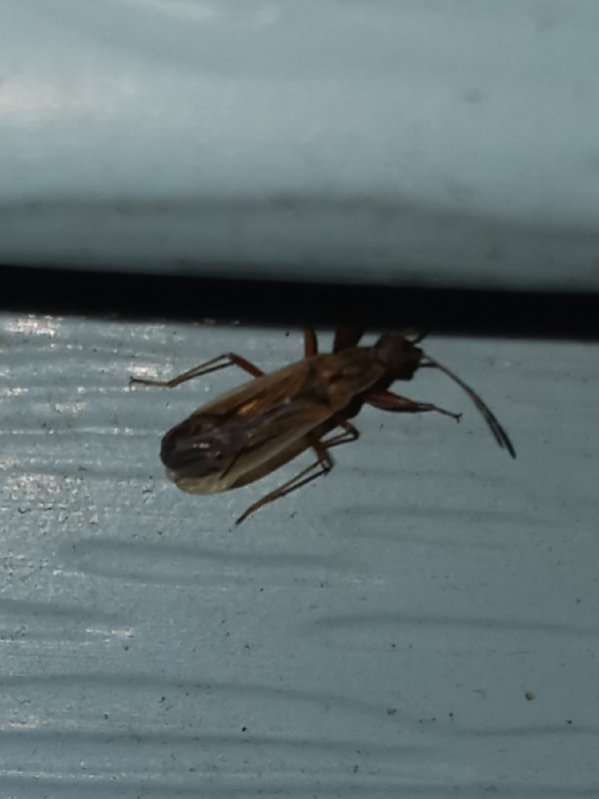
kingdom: Animalia
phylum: Arthropoda
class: Insecta
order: Hemiptera
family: Rhyparochromidae
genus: Paromius
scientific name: Paromius longulus
